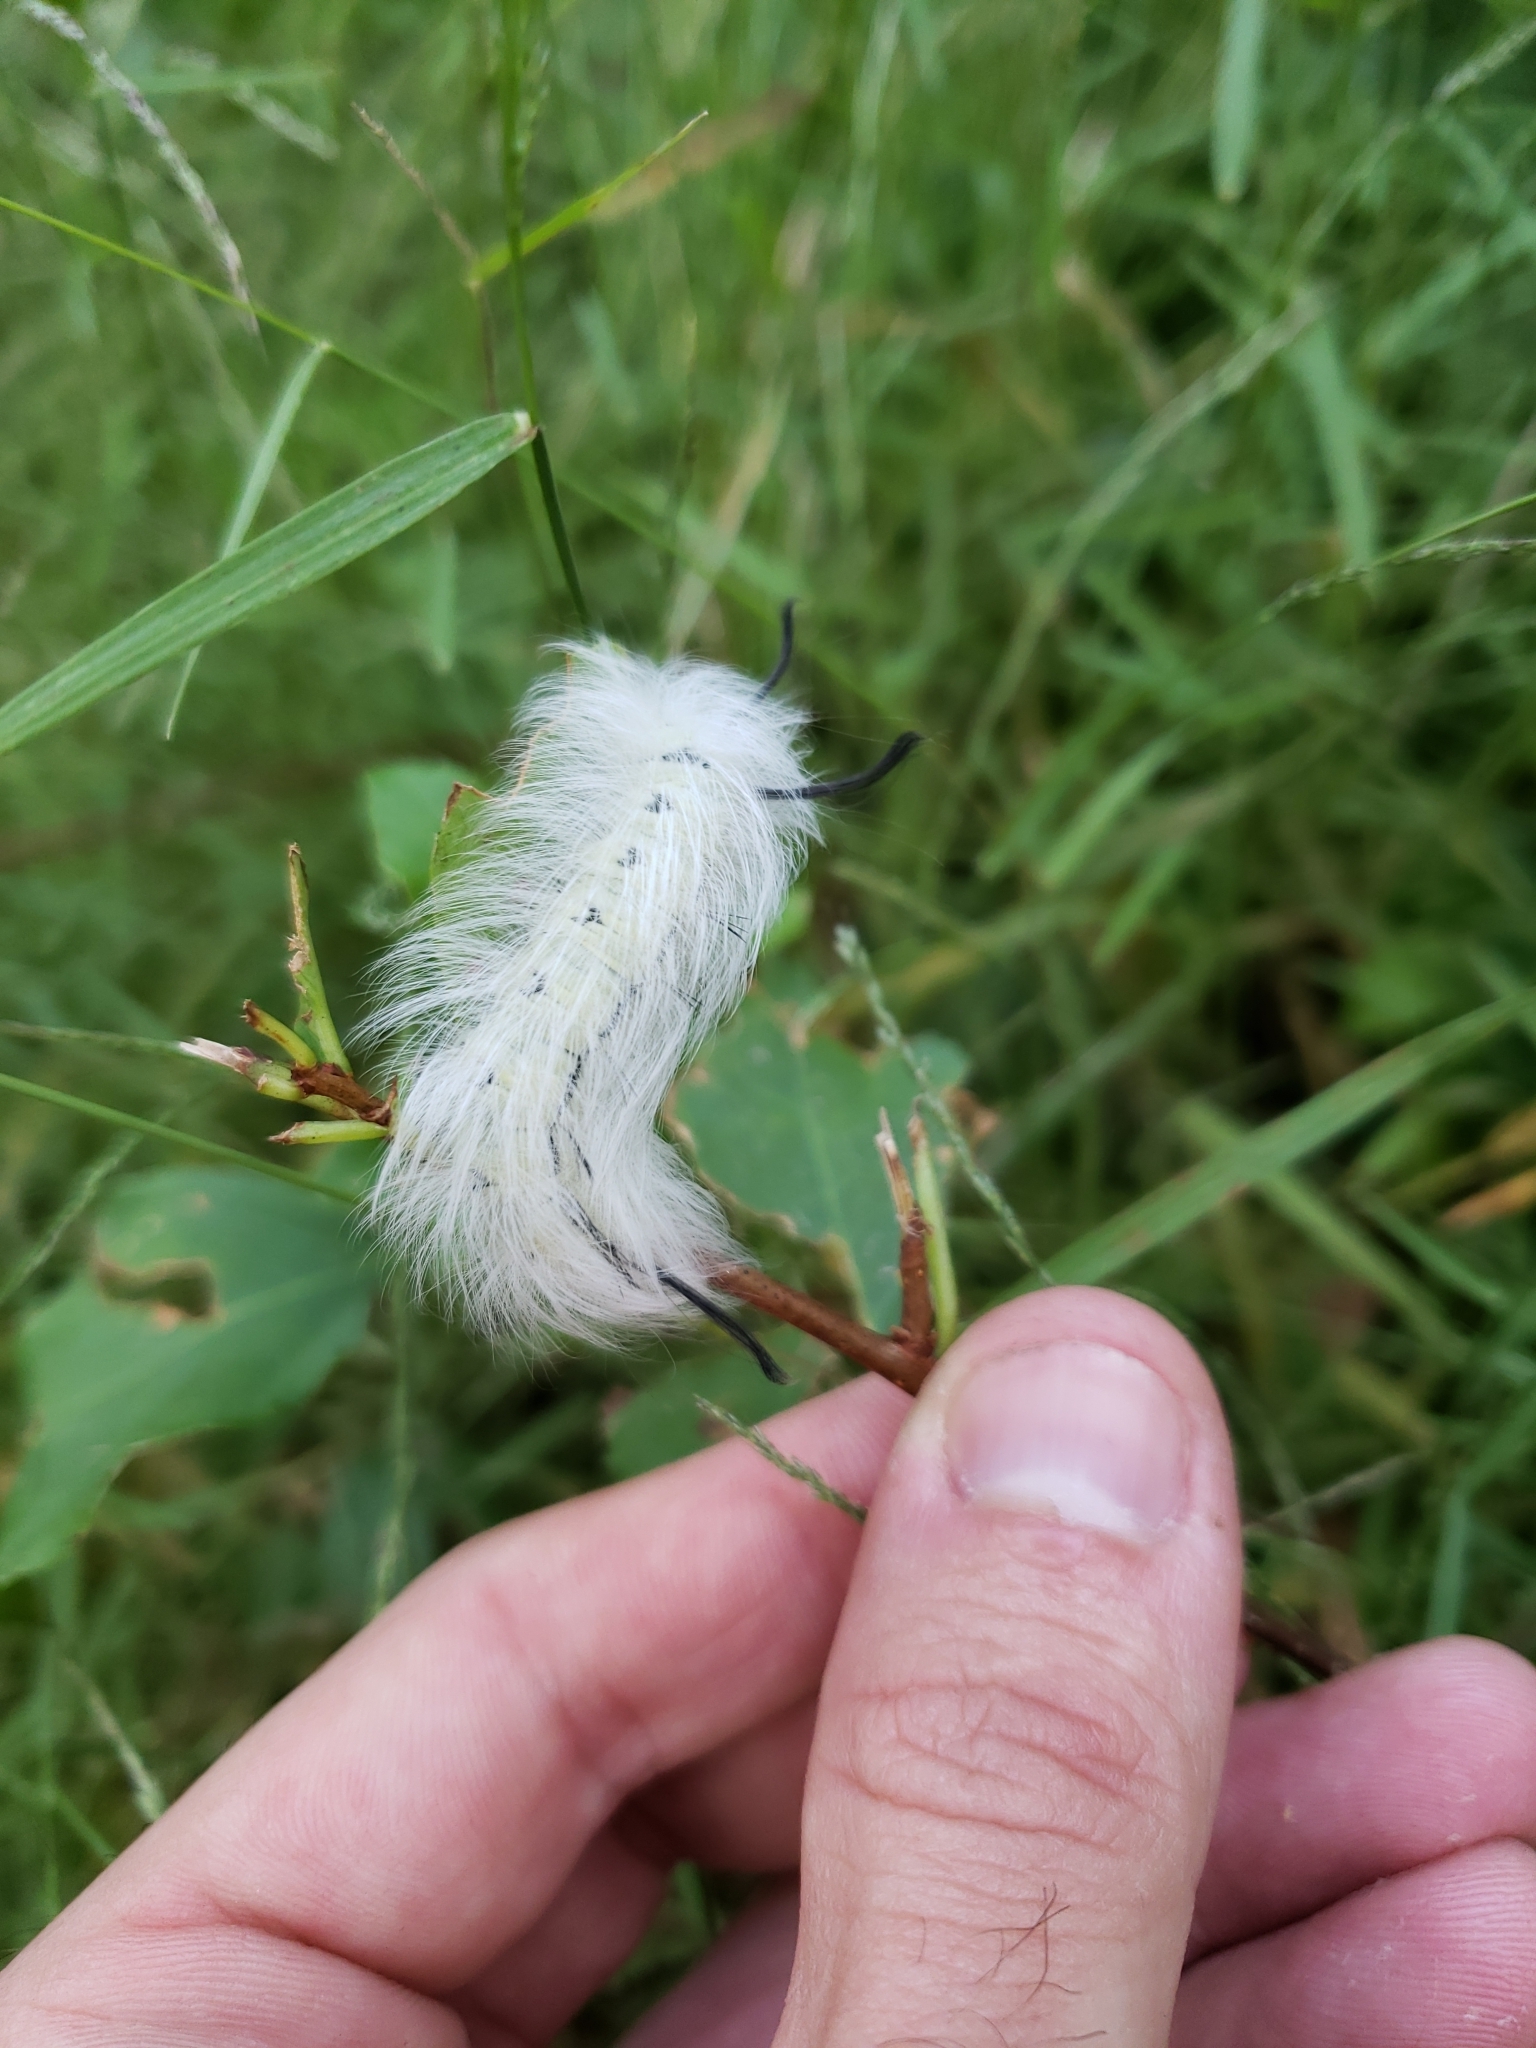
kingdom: Animalia
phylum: Arthropoda
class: Insecta
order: Lepidoptera
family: Apatelodidae
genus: Hygrochroa
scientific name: Hygrochroa Apatelodes torrefacta
